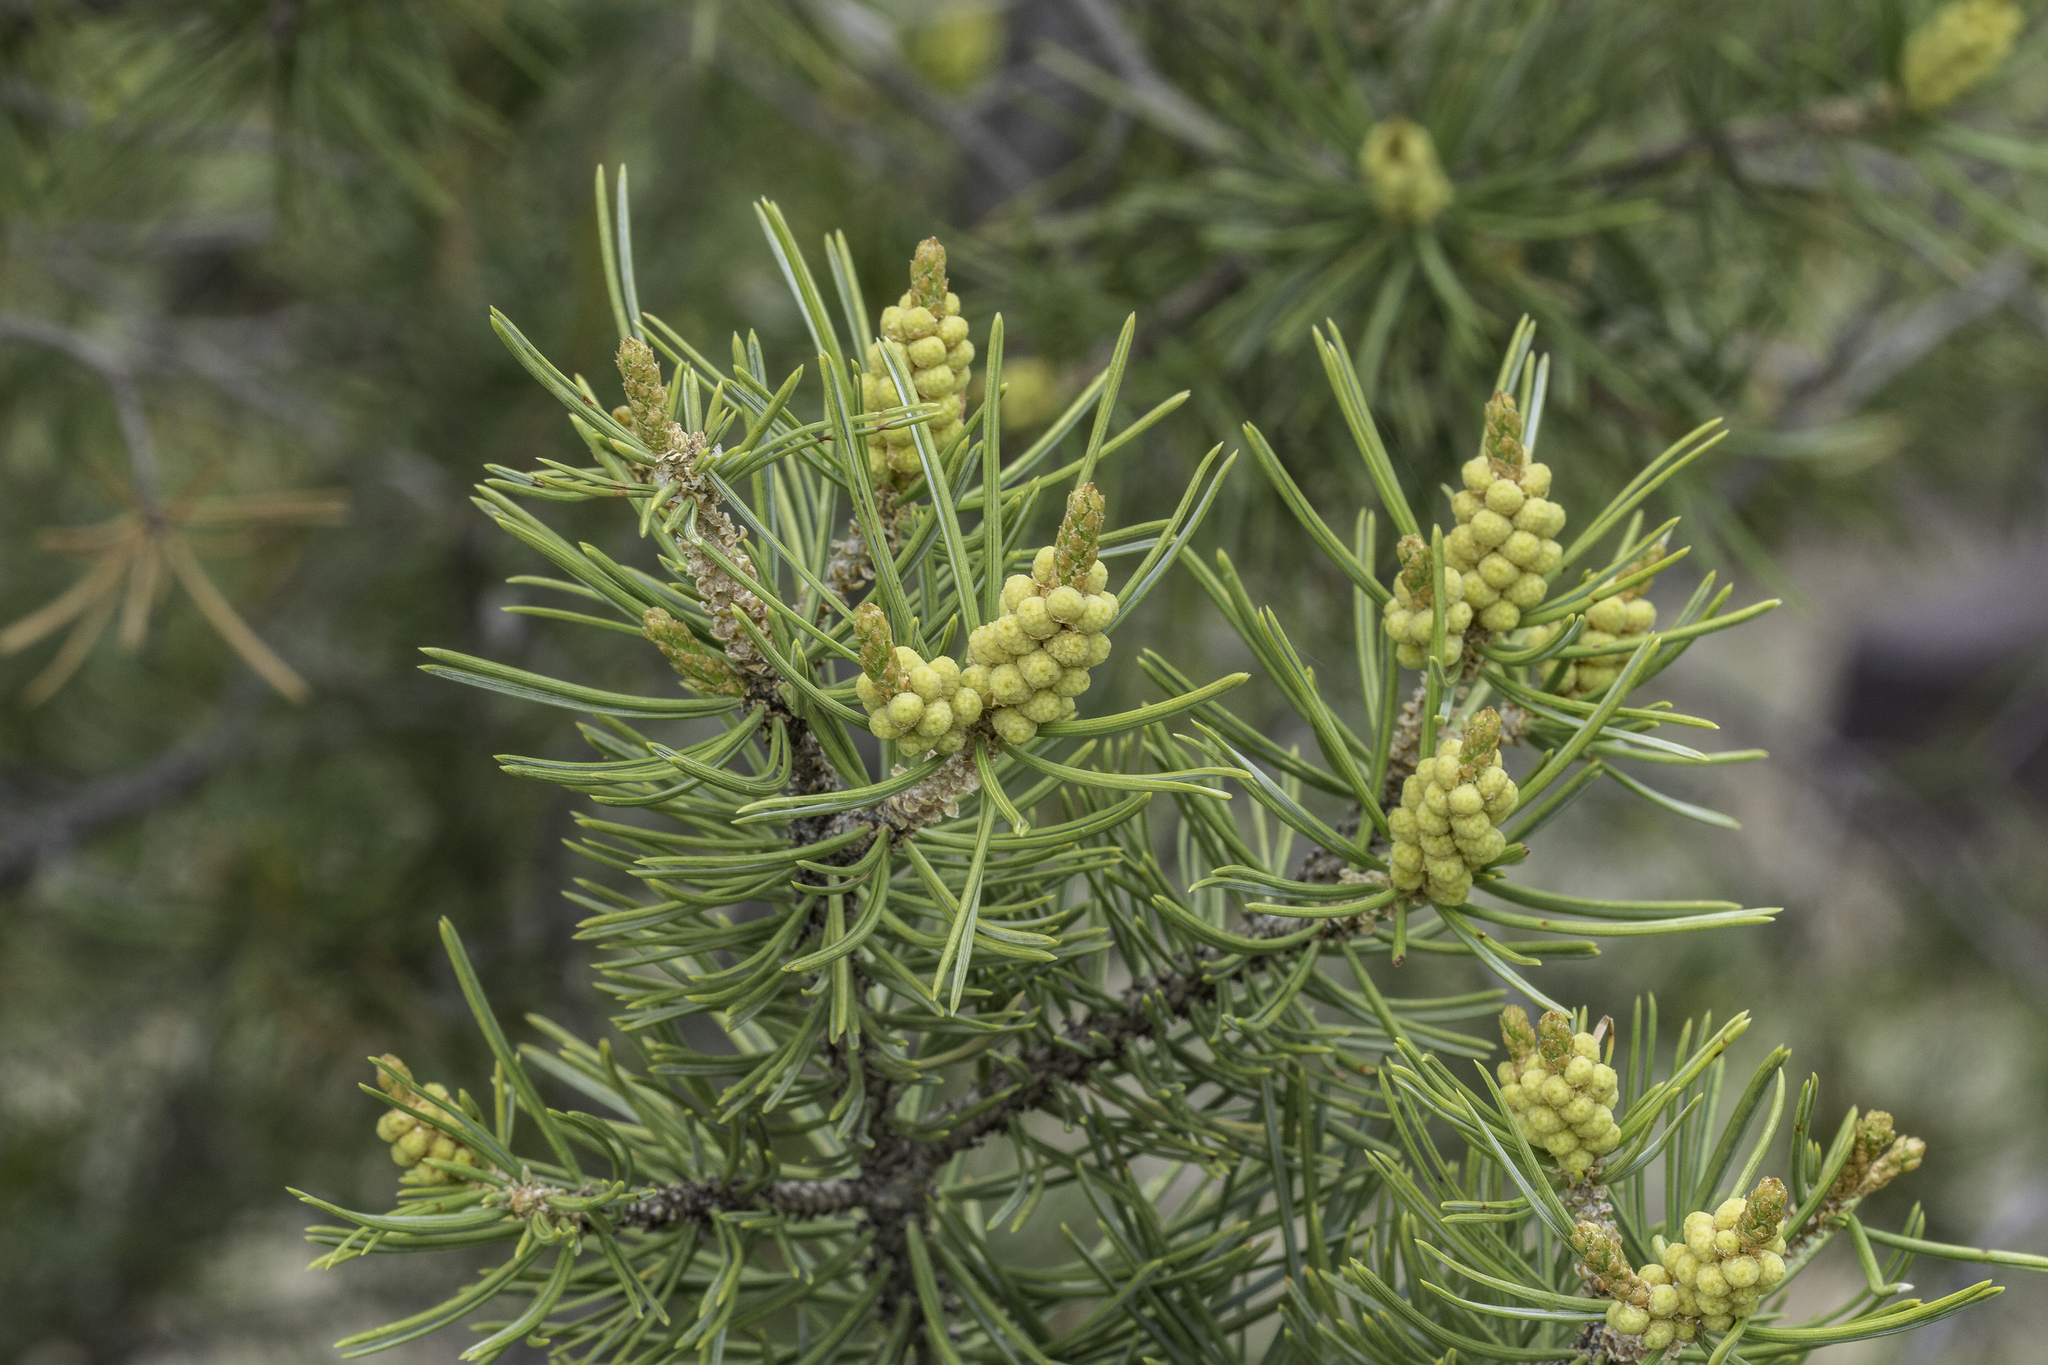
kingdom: Plantae
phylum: Tracheophyta
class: Pinopsida
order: Pinales
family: Pinaceae
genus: Pinus
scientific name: Pinus edulis
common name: Colorado pinyon
